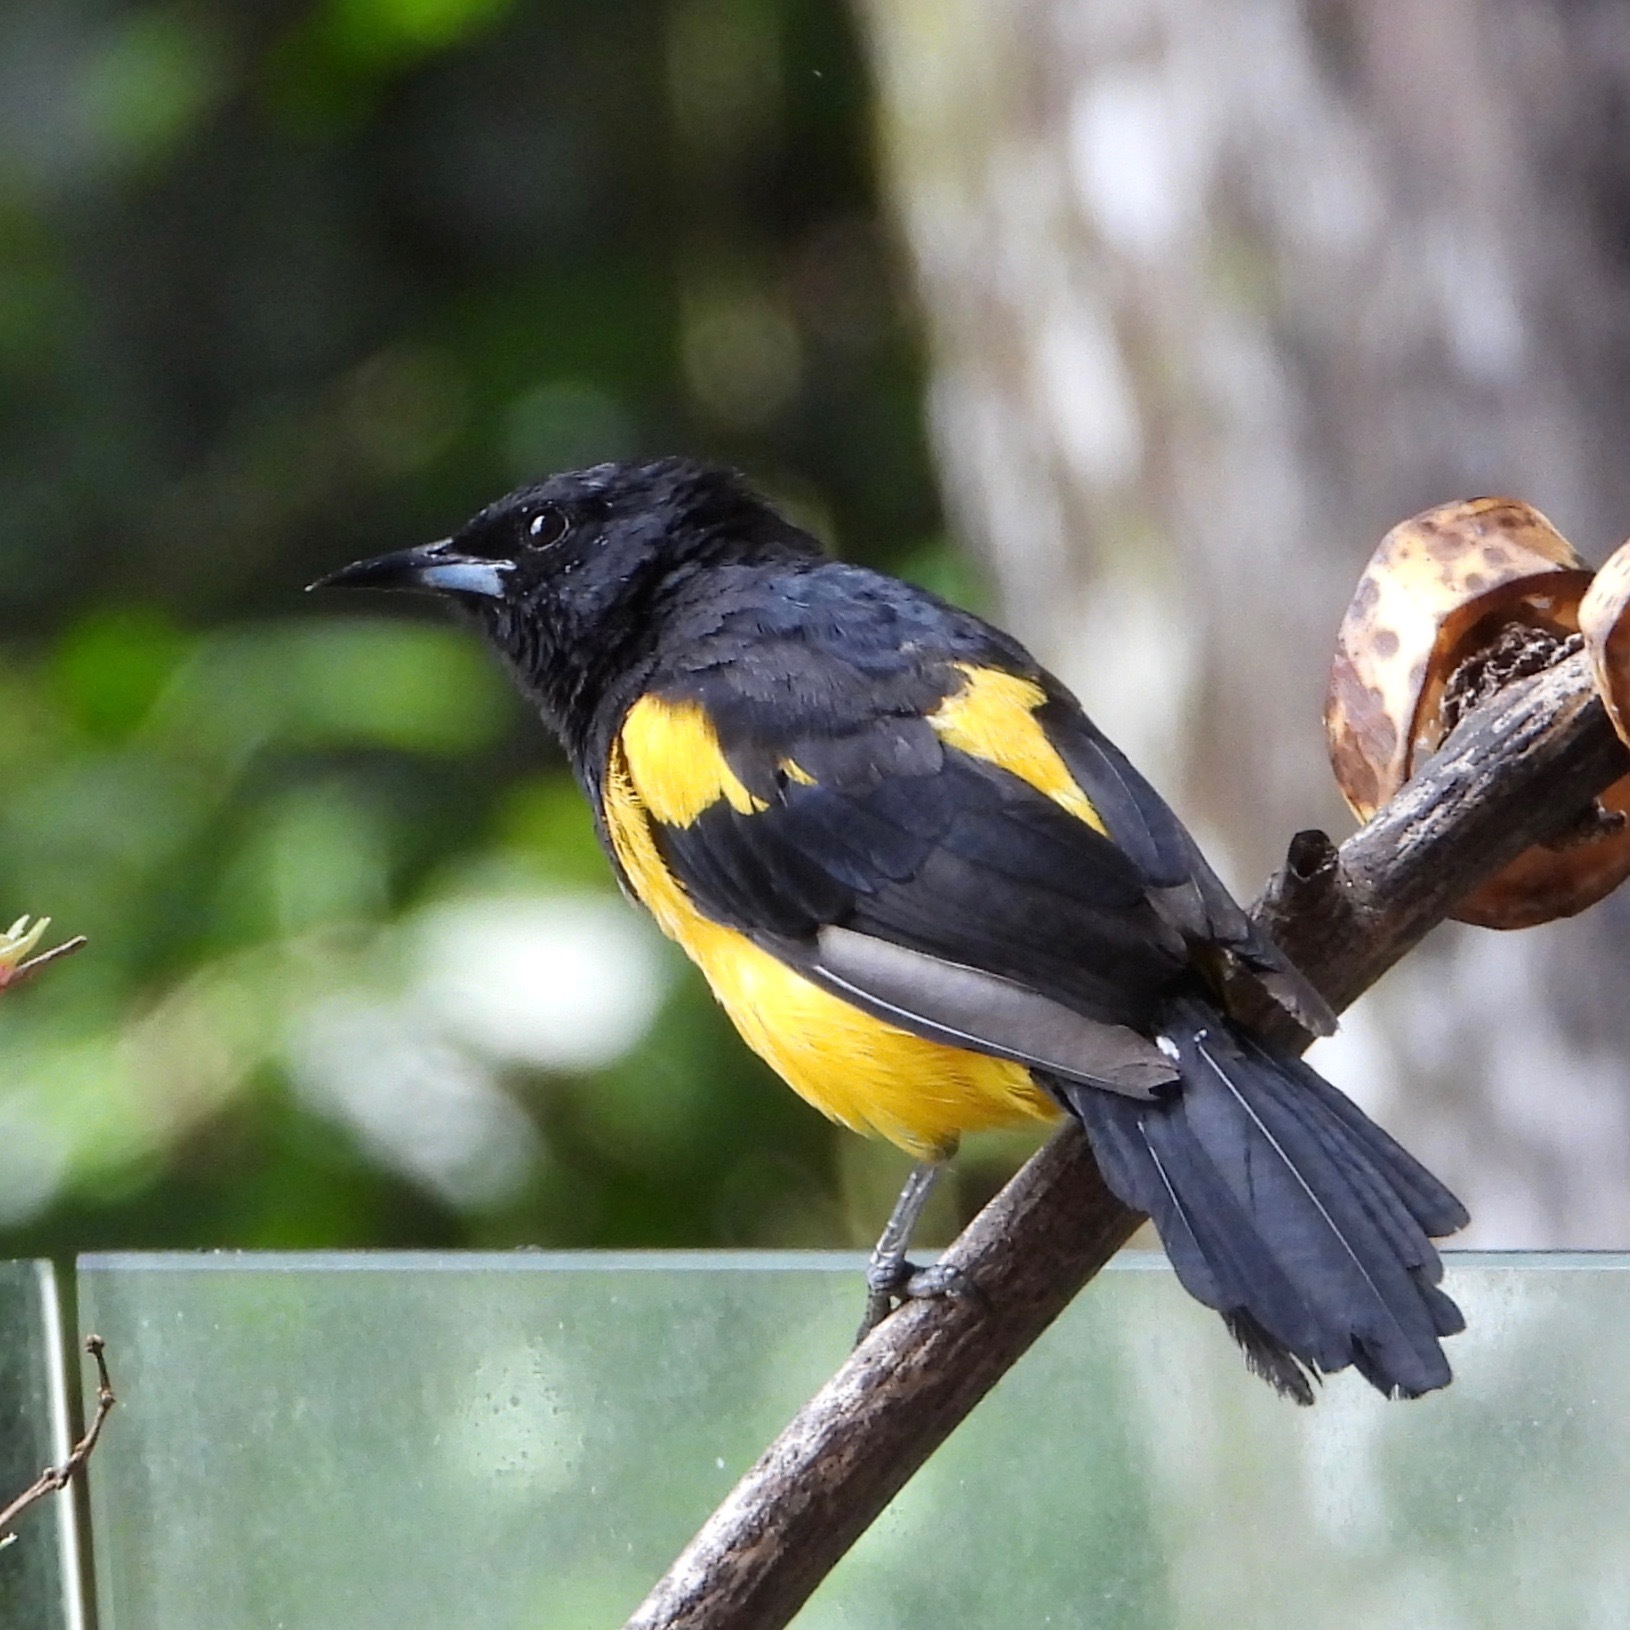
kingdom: Animalia
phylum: Chordata
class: Aves
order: Passeriformes
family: Icteridae
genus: Icterus
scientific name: Icterus wagleri
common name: Black-vented oriole
